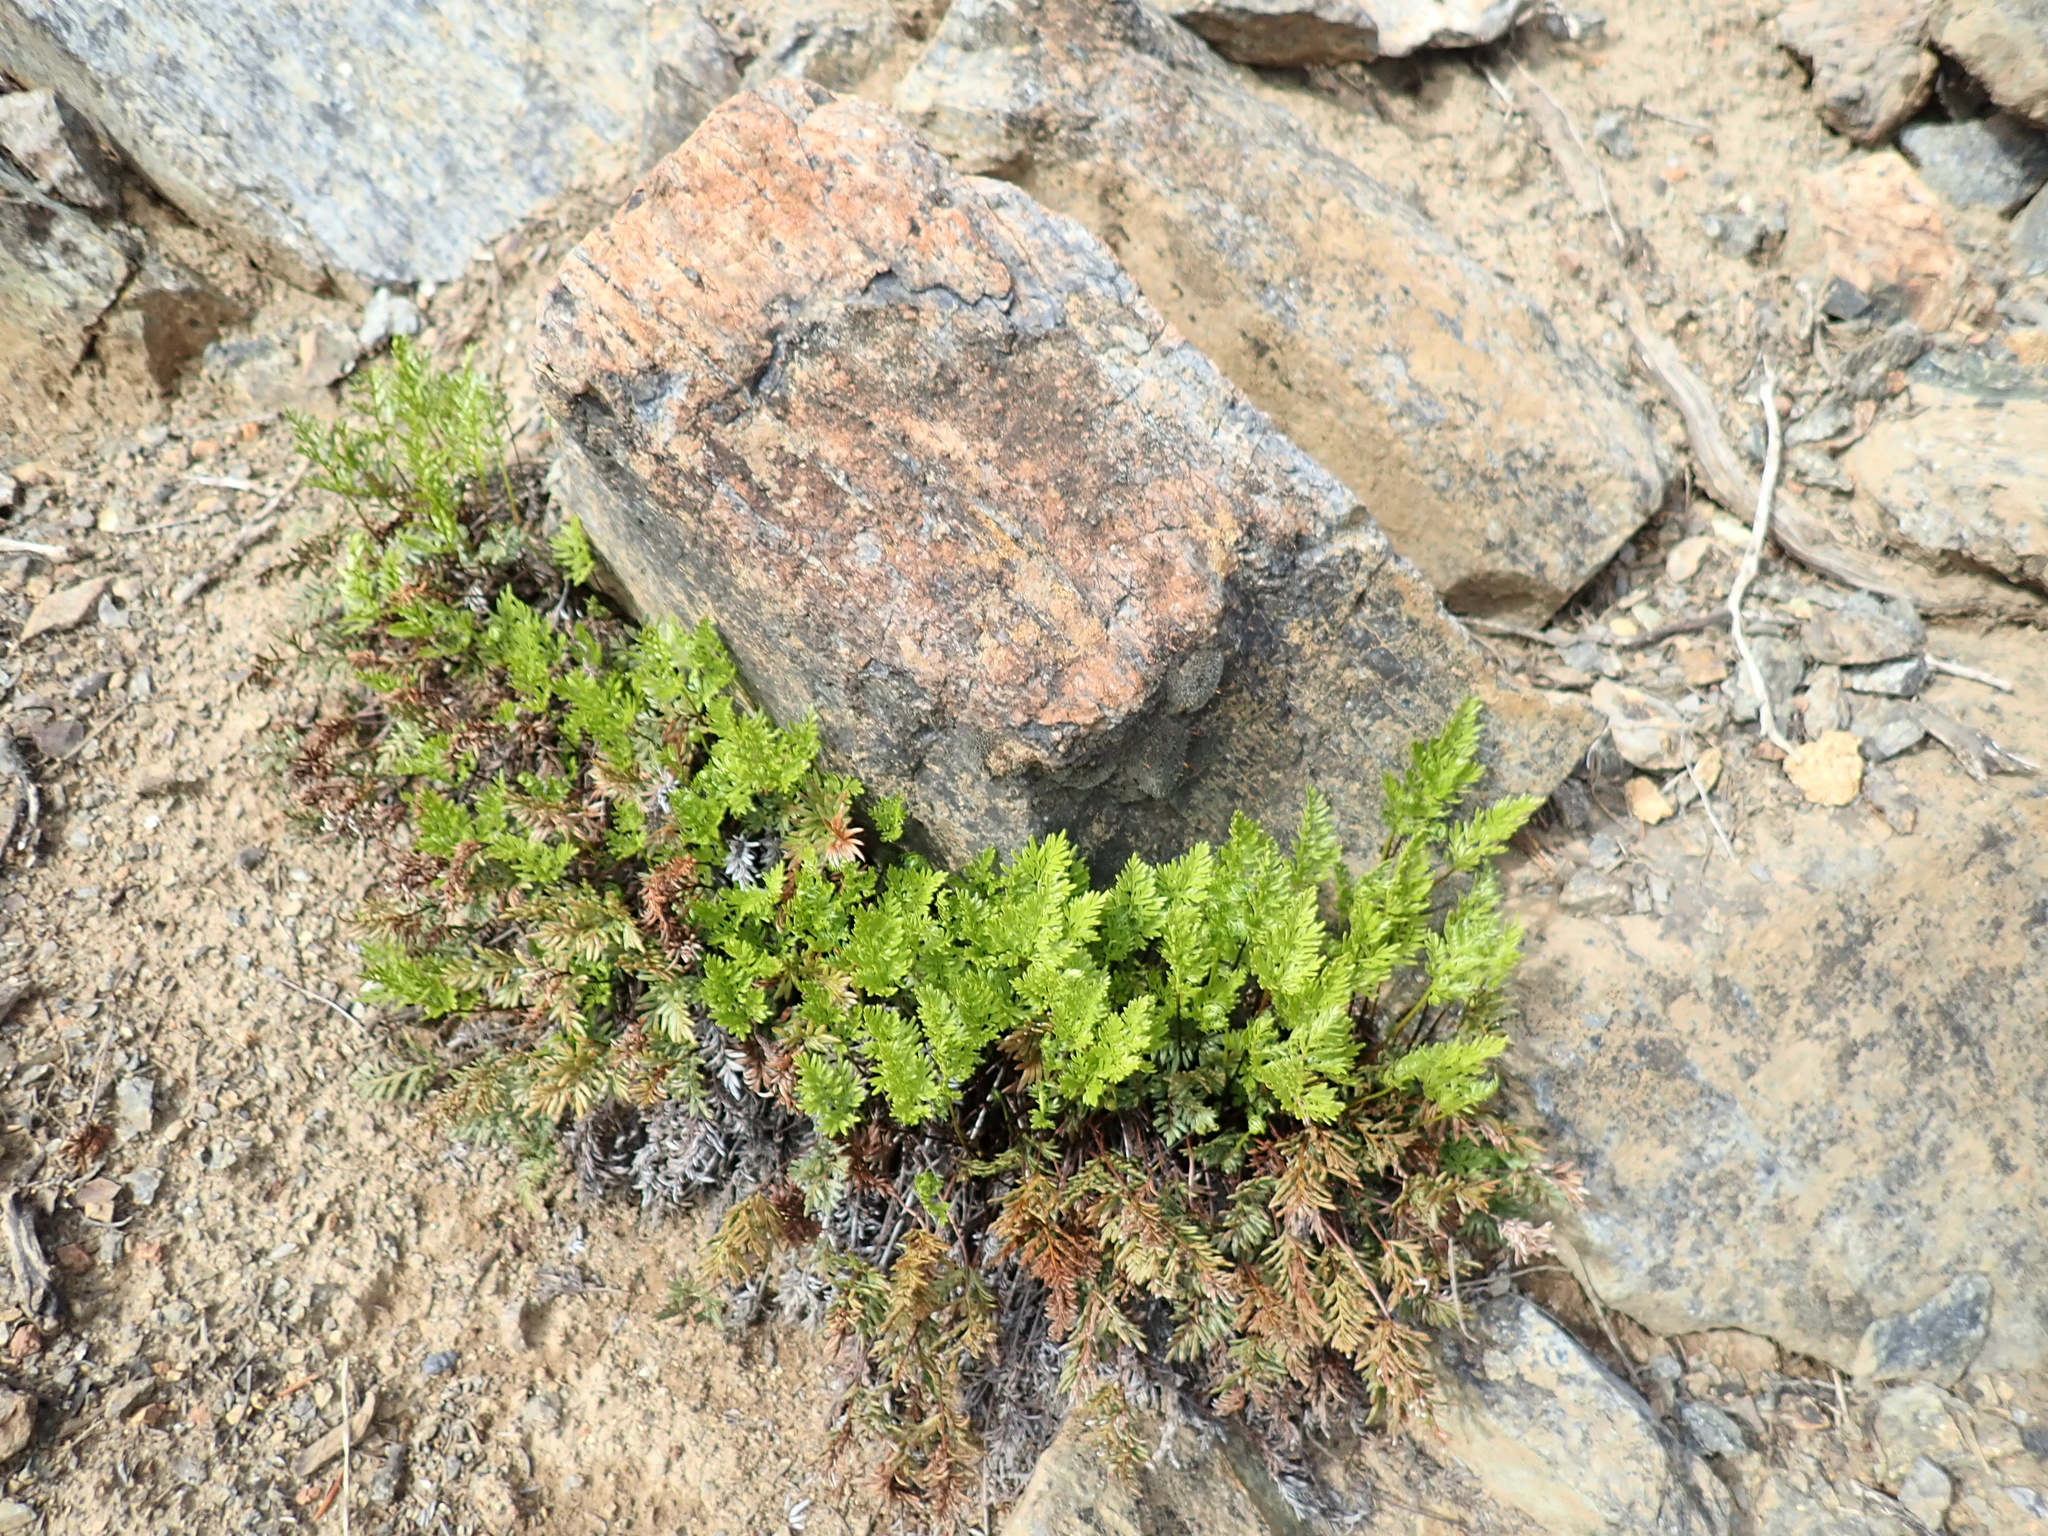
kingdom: Plantae
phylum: Tracheophyta
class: Polypodiopsida
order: Polypodiales
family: Pteridaceae
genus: Aspidotis
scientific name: Aspidotis densa
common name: Indian's dream
